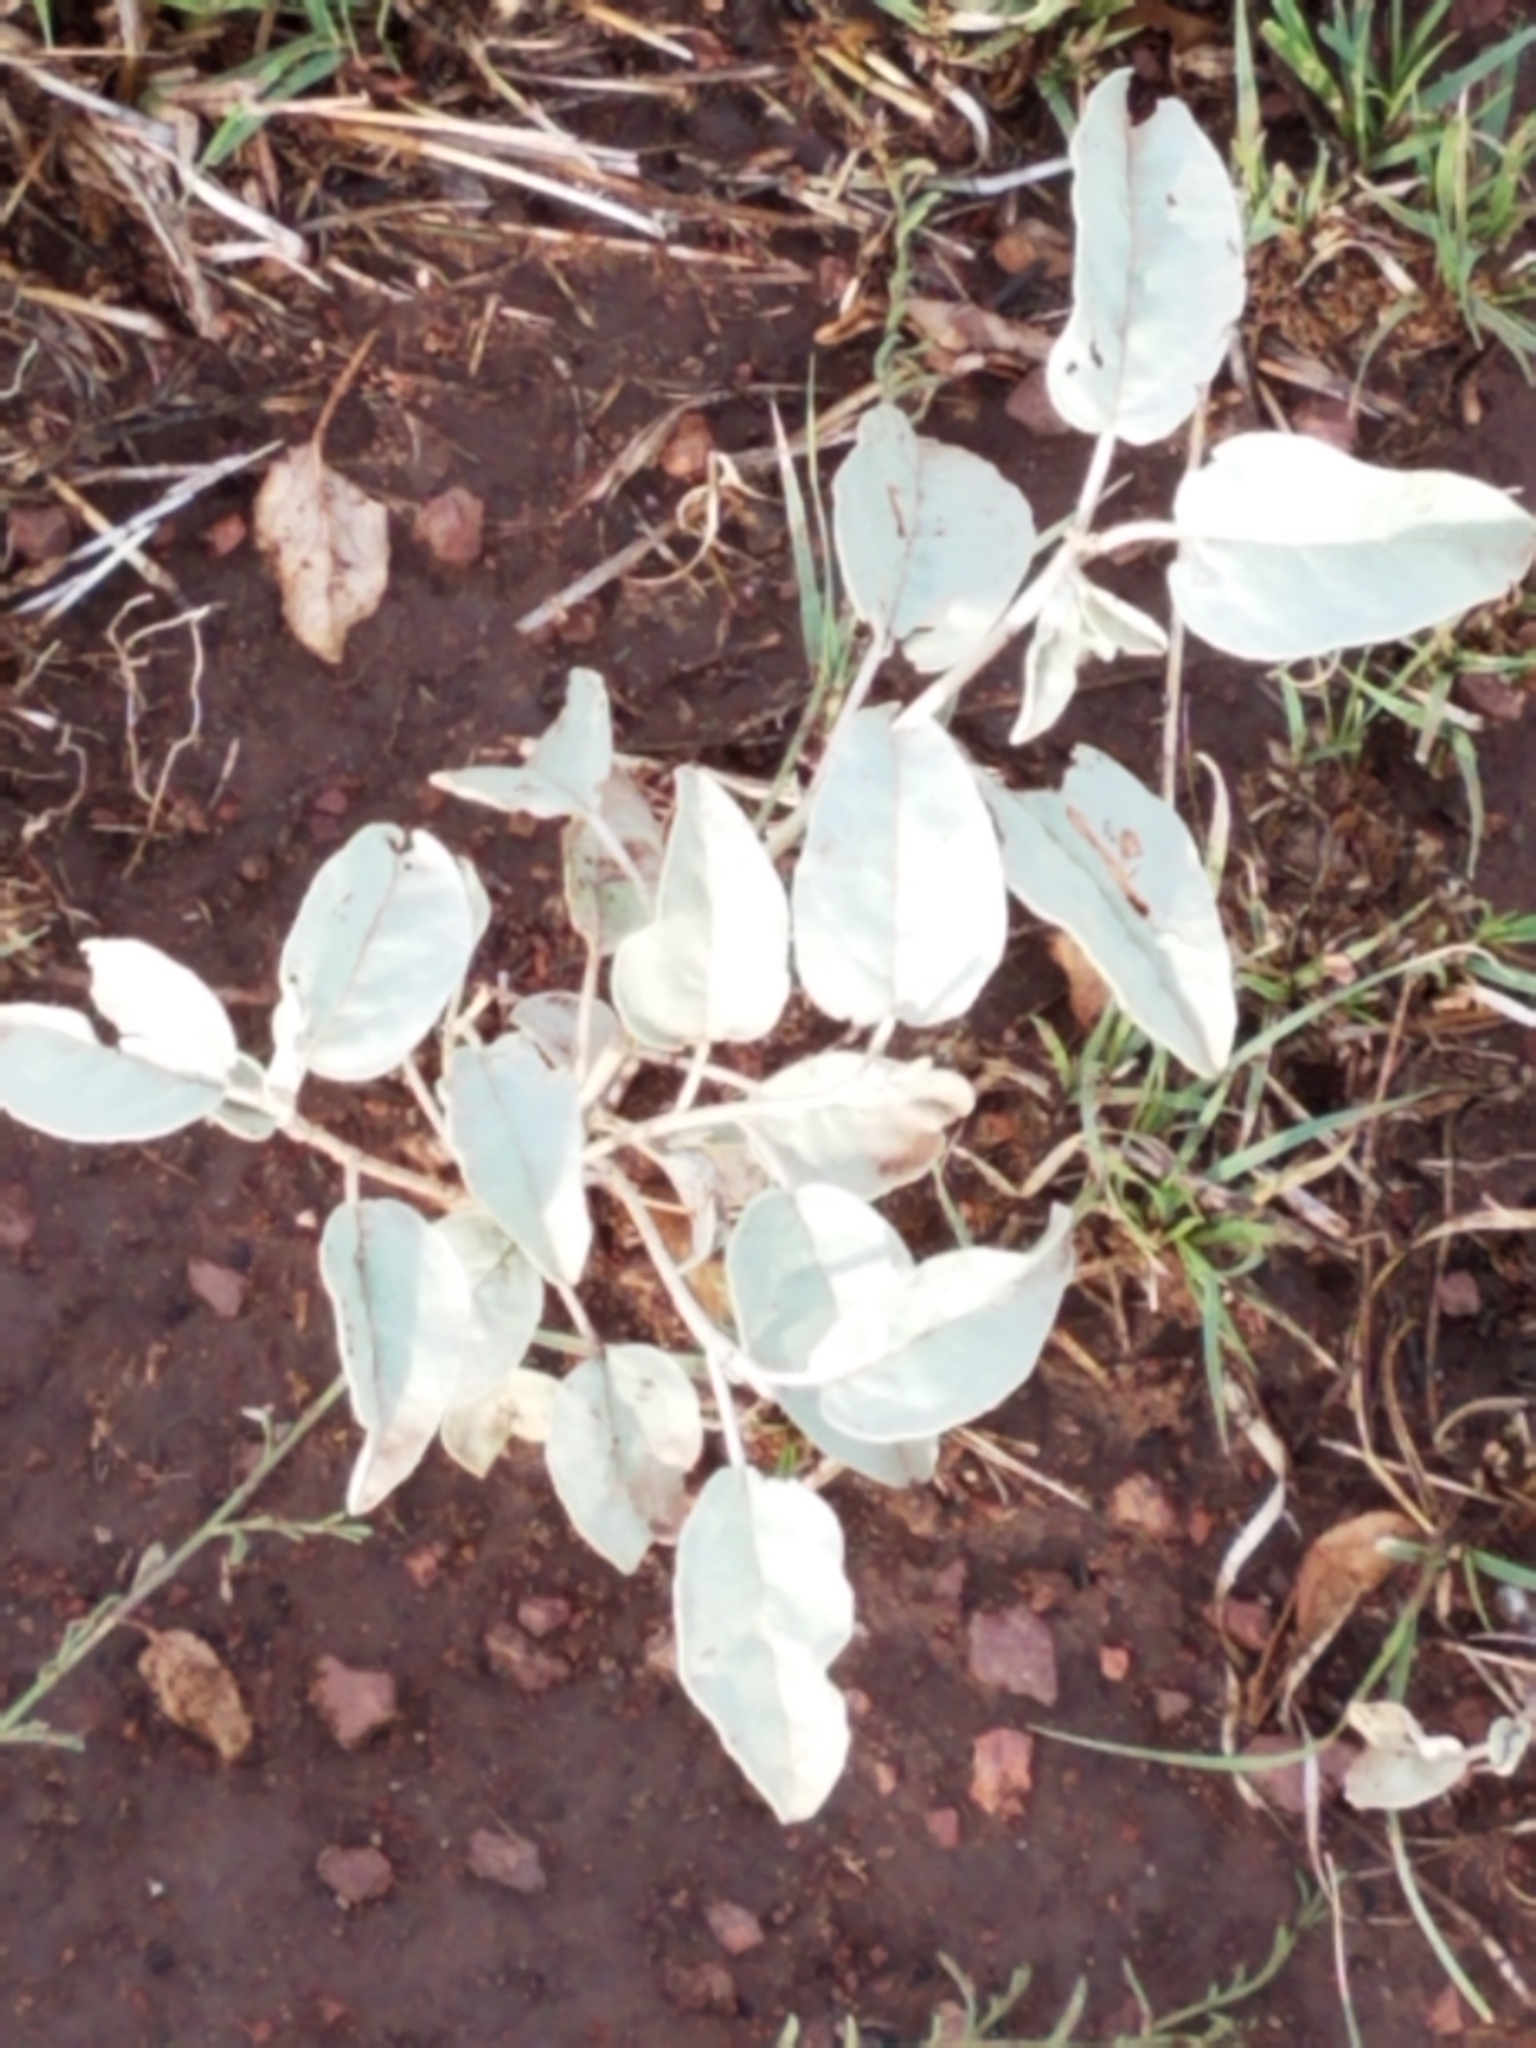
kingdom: Plantae
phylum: Tracheophyta
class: Magnoliopsida
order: Malpighiales
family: Euphorbiaceae
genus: Croton
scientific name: Croton pottsii
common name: Leatherweed
